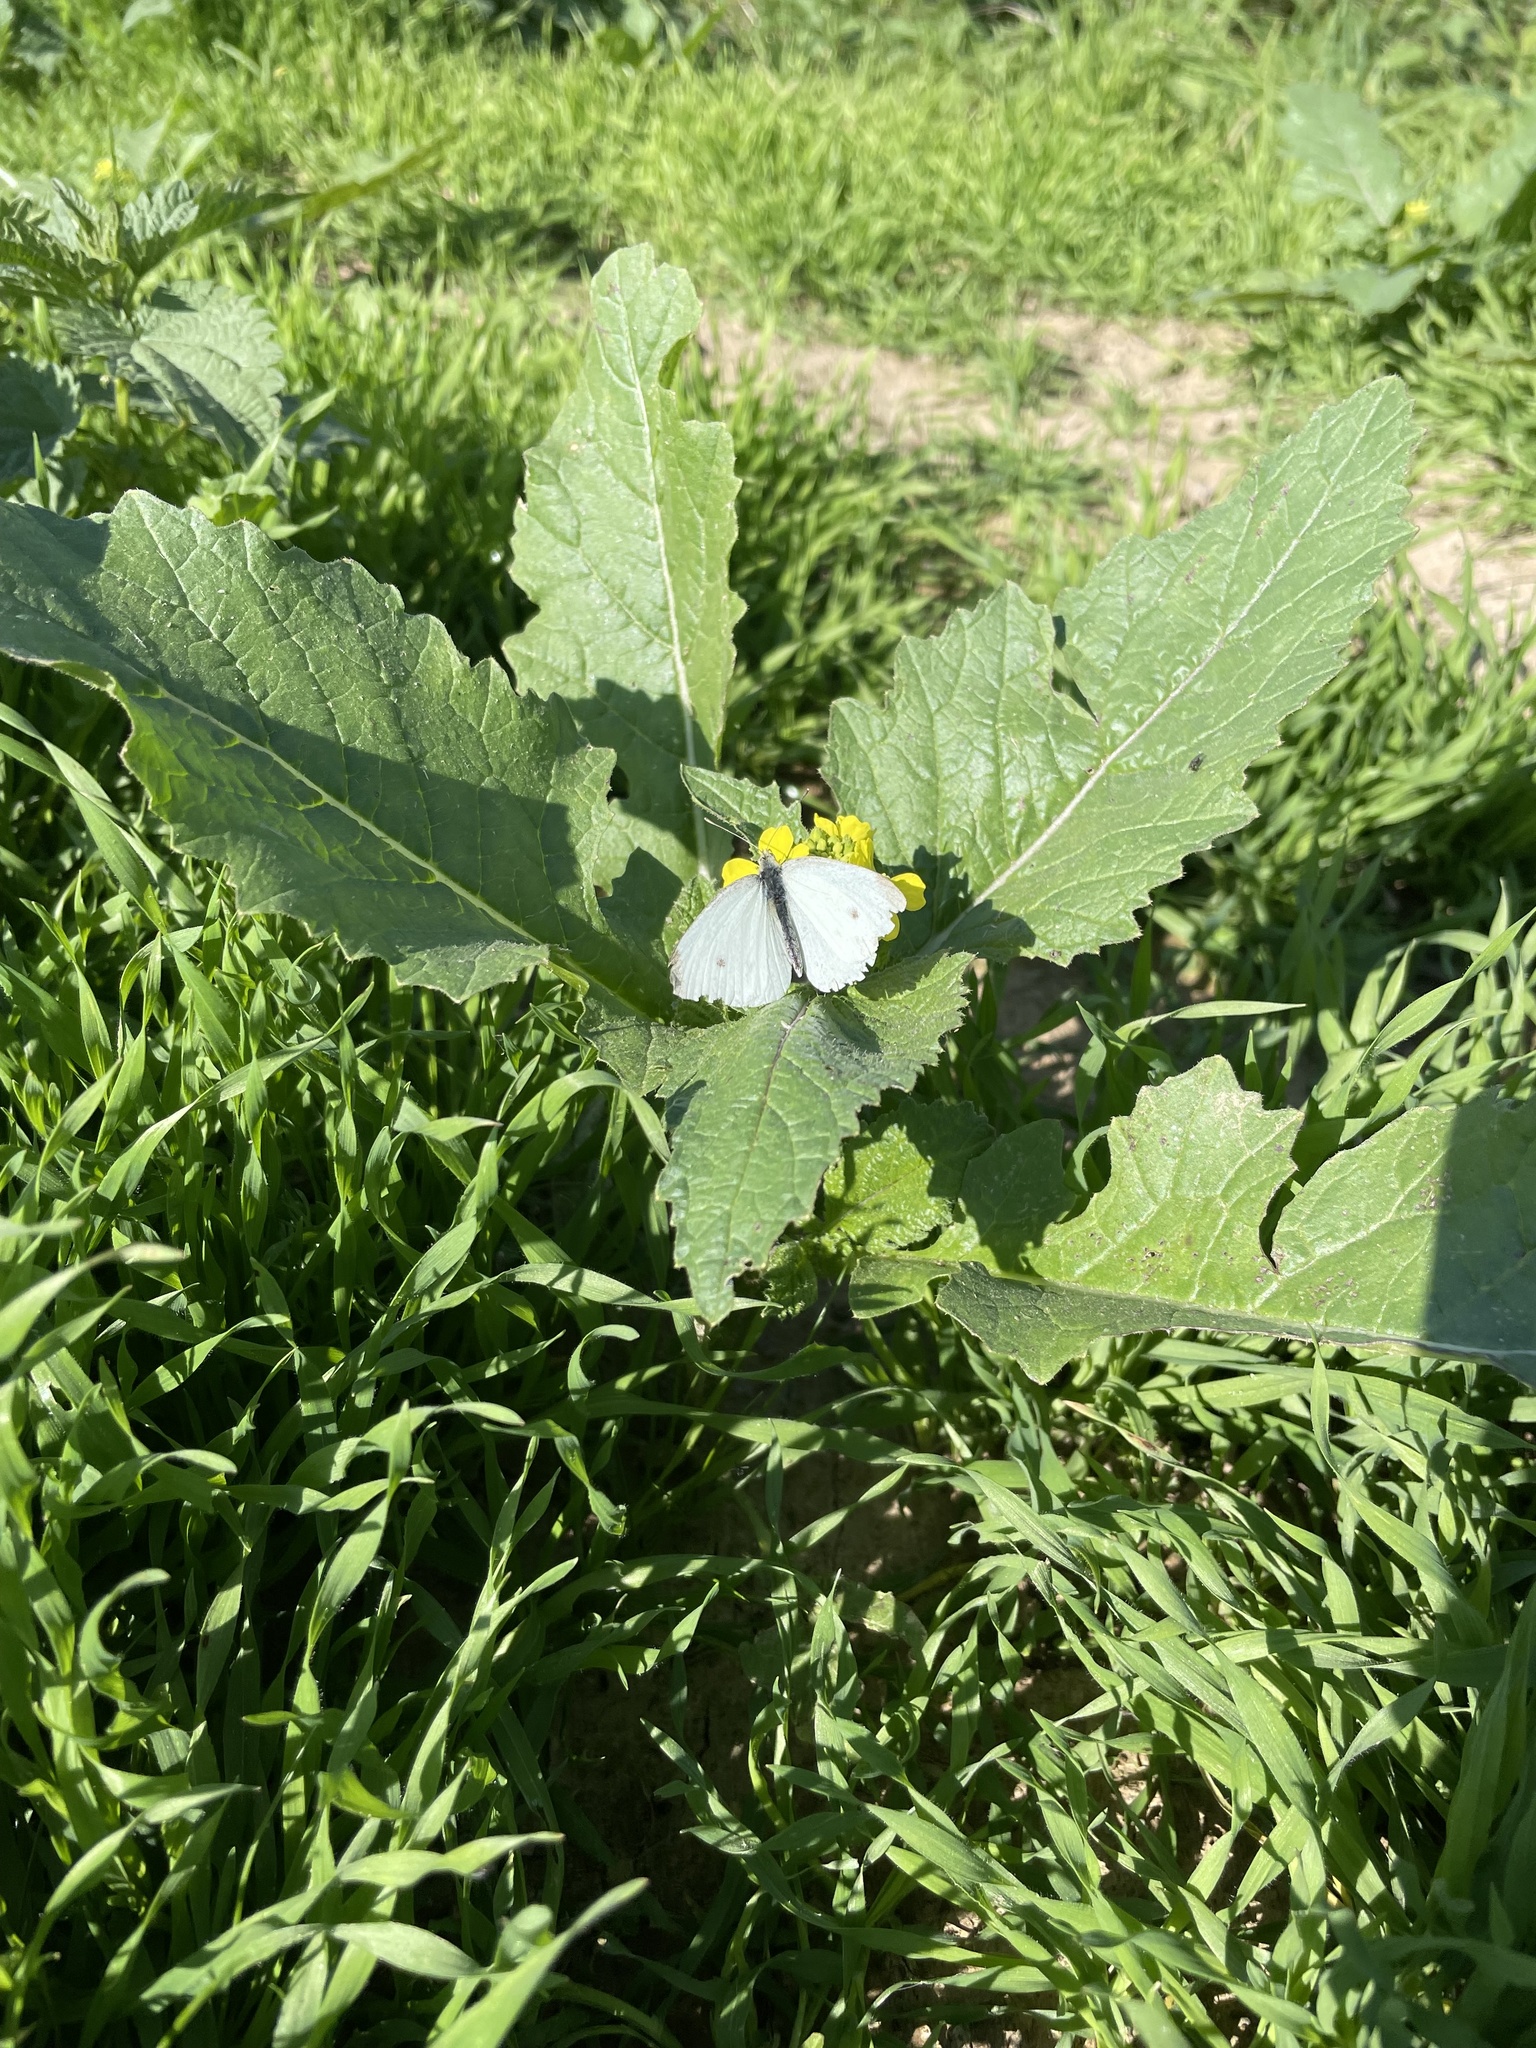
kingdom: Animalia
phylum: Arthropoda
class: Insecta
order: Lepidoptera
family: Pieridae
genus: Pieris
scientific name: Pieris rapae
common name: Small white
